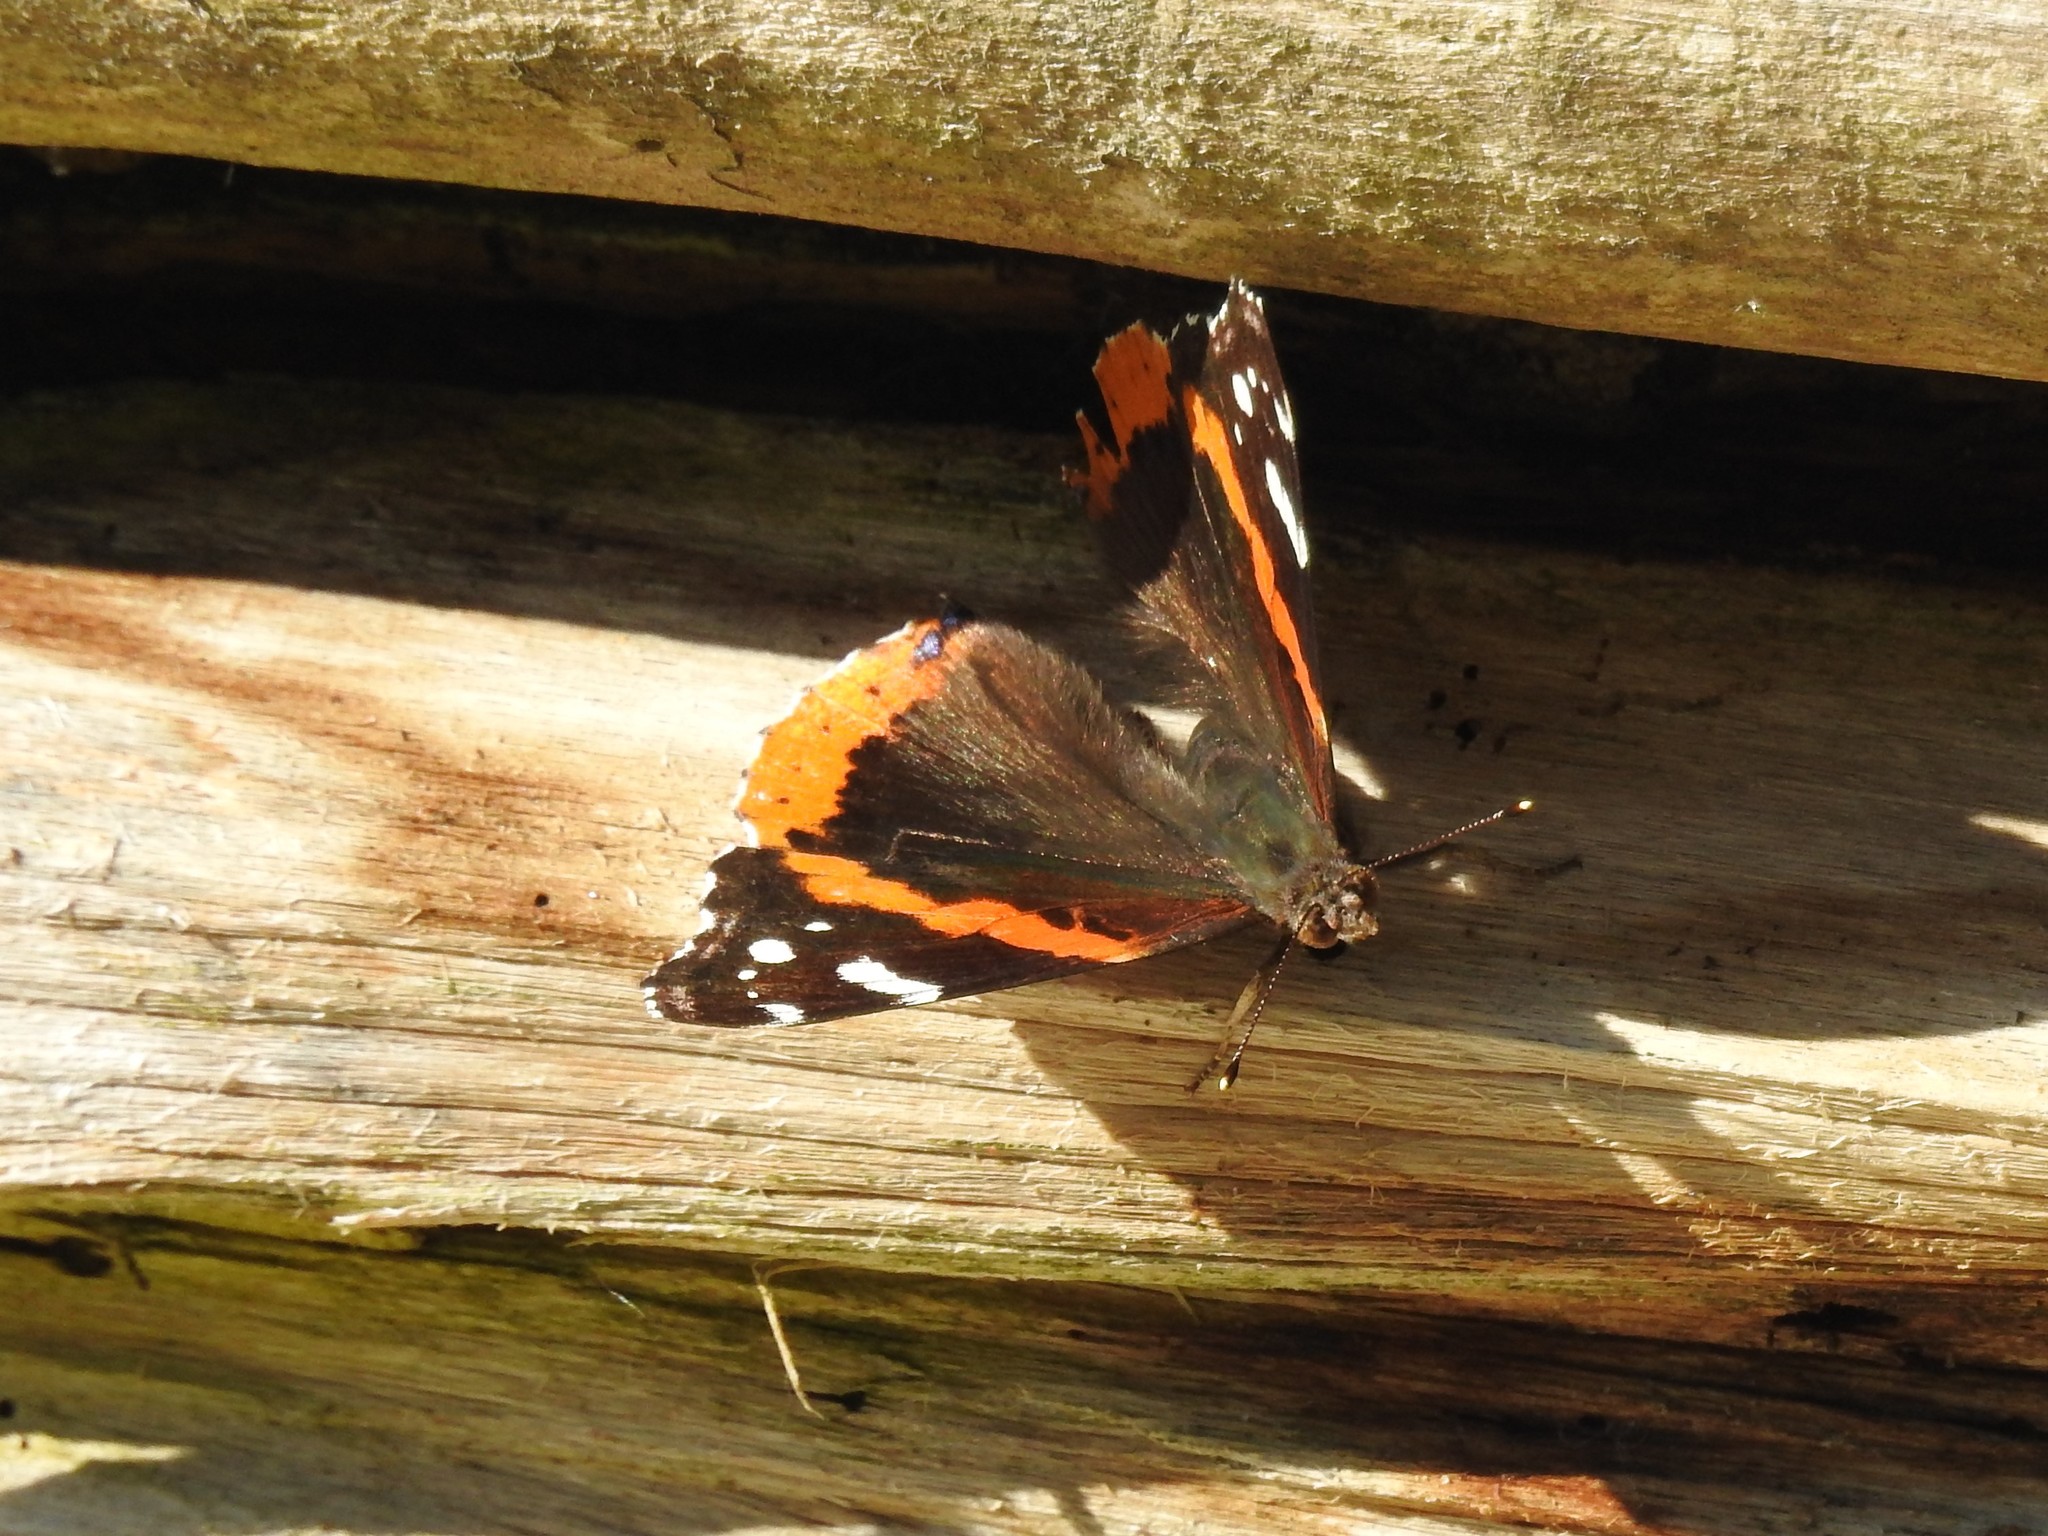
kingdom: Animalia
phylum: Arthropoda
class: Insecta
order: Lepidoptera
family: Nymphalidae
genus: Vanessa
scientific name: Vanessa atalanta
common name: Red admiral
